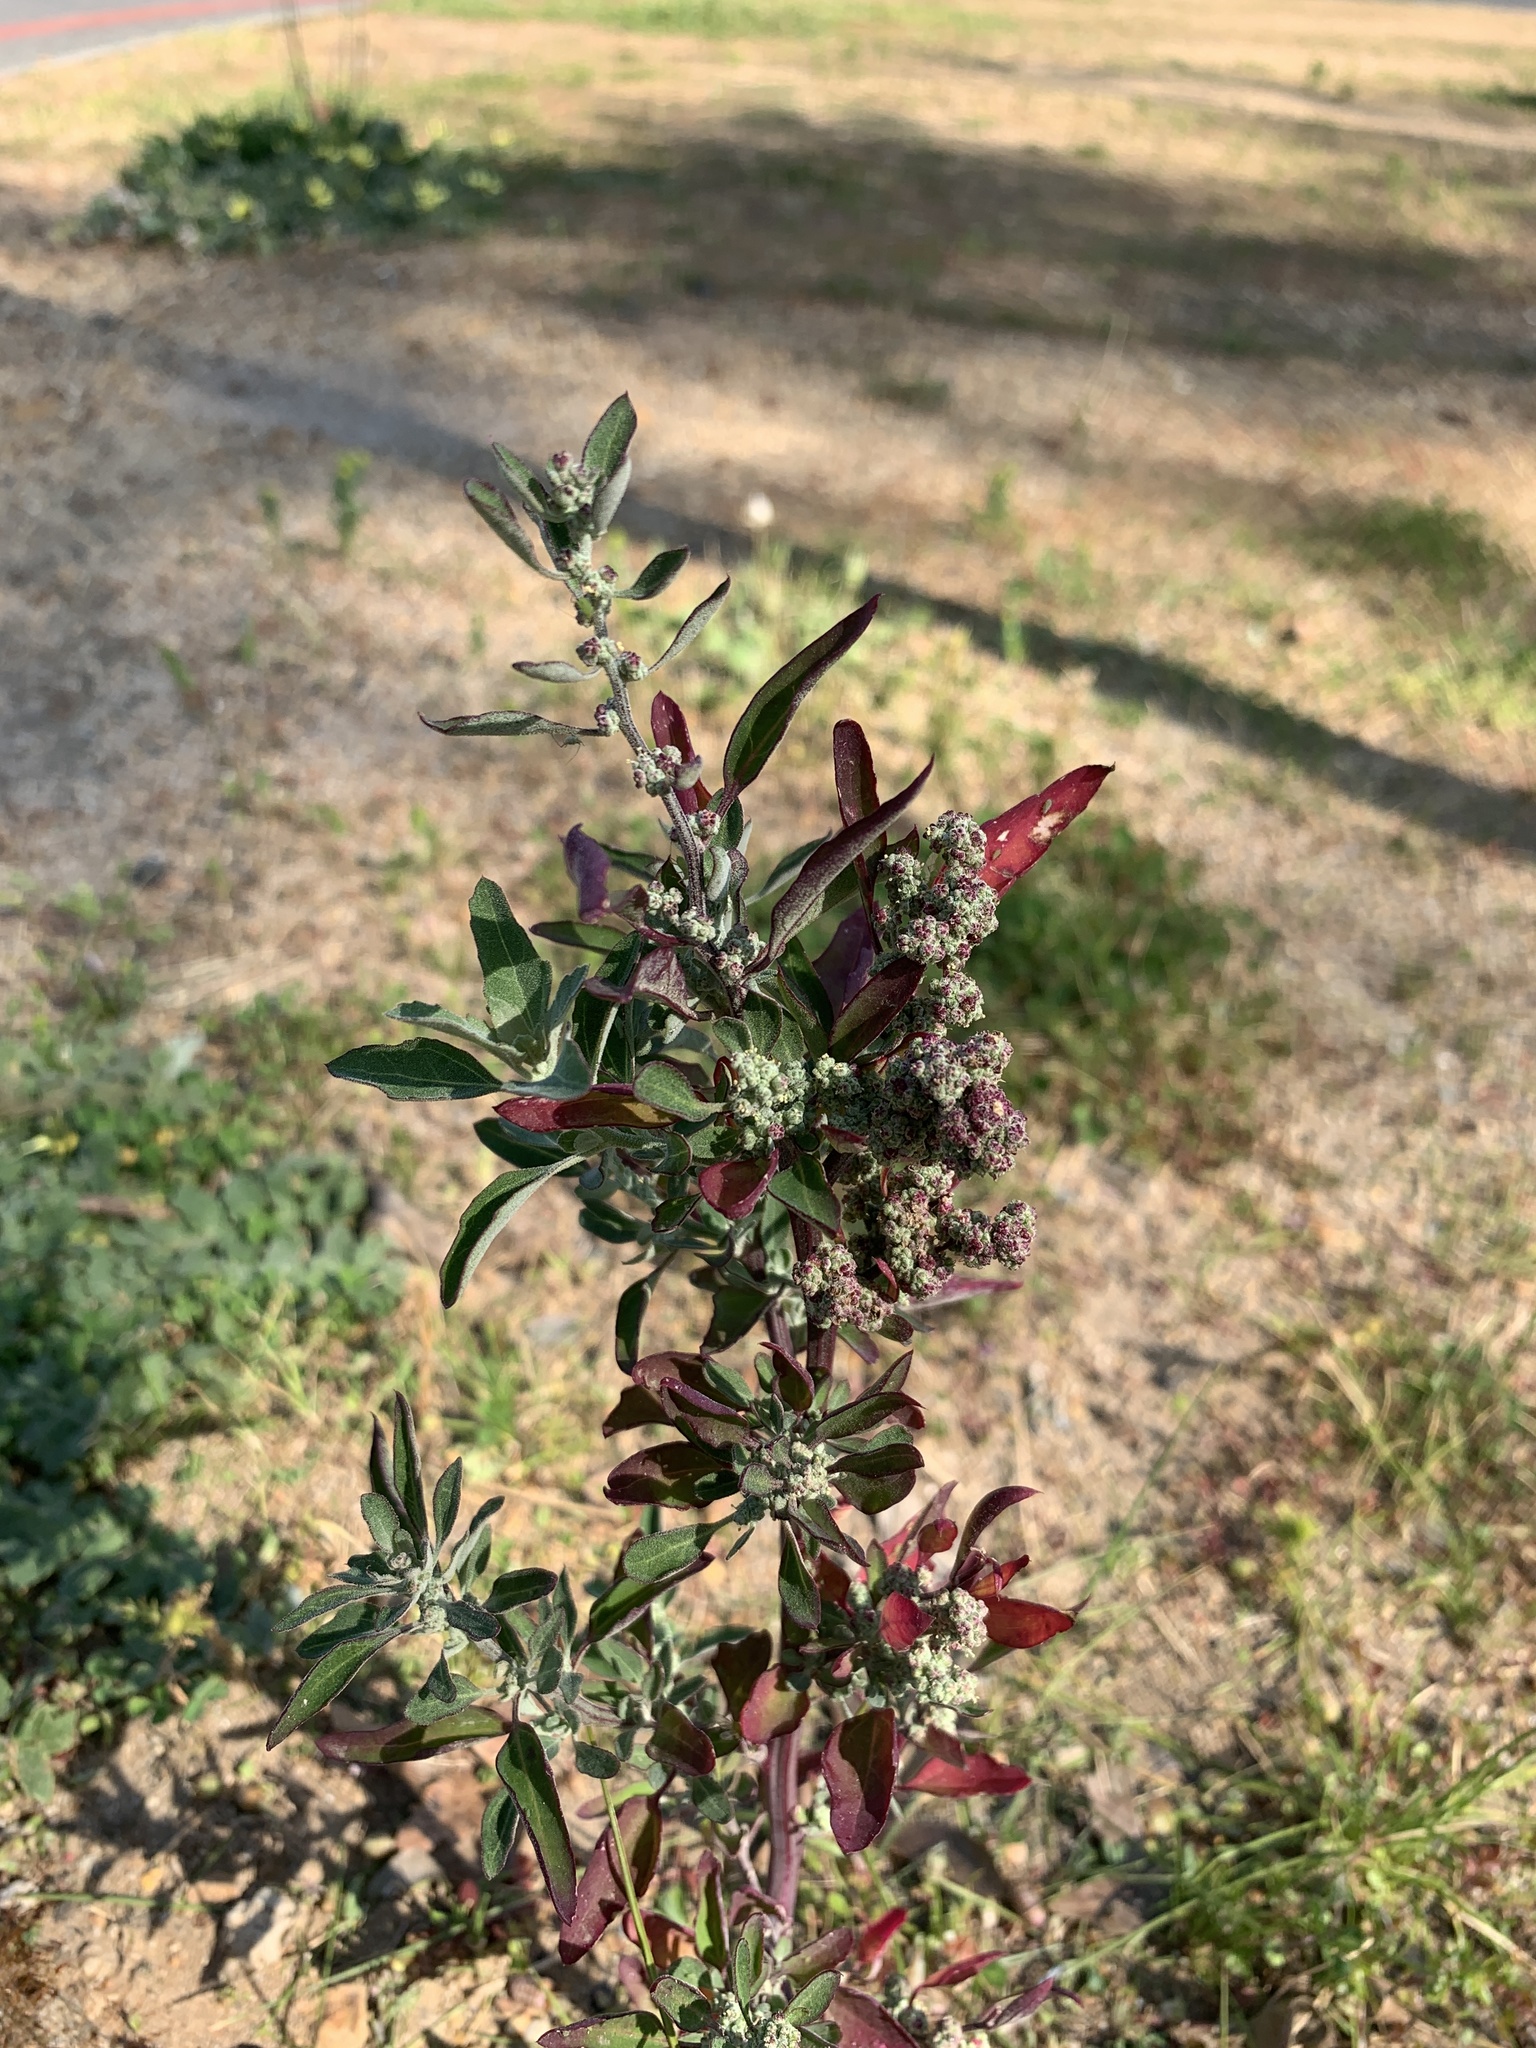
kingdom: Plantae
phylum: Tracheophyta
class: Magnoliopsida
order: Caryophyllales
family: Amaranthaceae
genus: Chenopodium
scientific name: Chenopodium album
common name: Fat-hen
